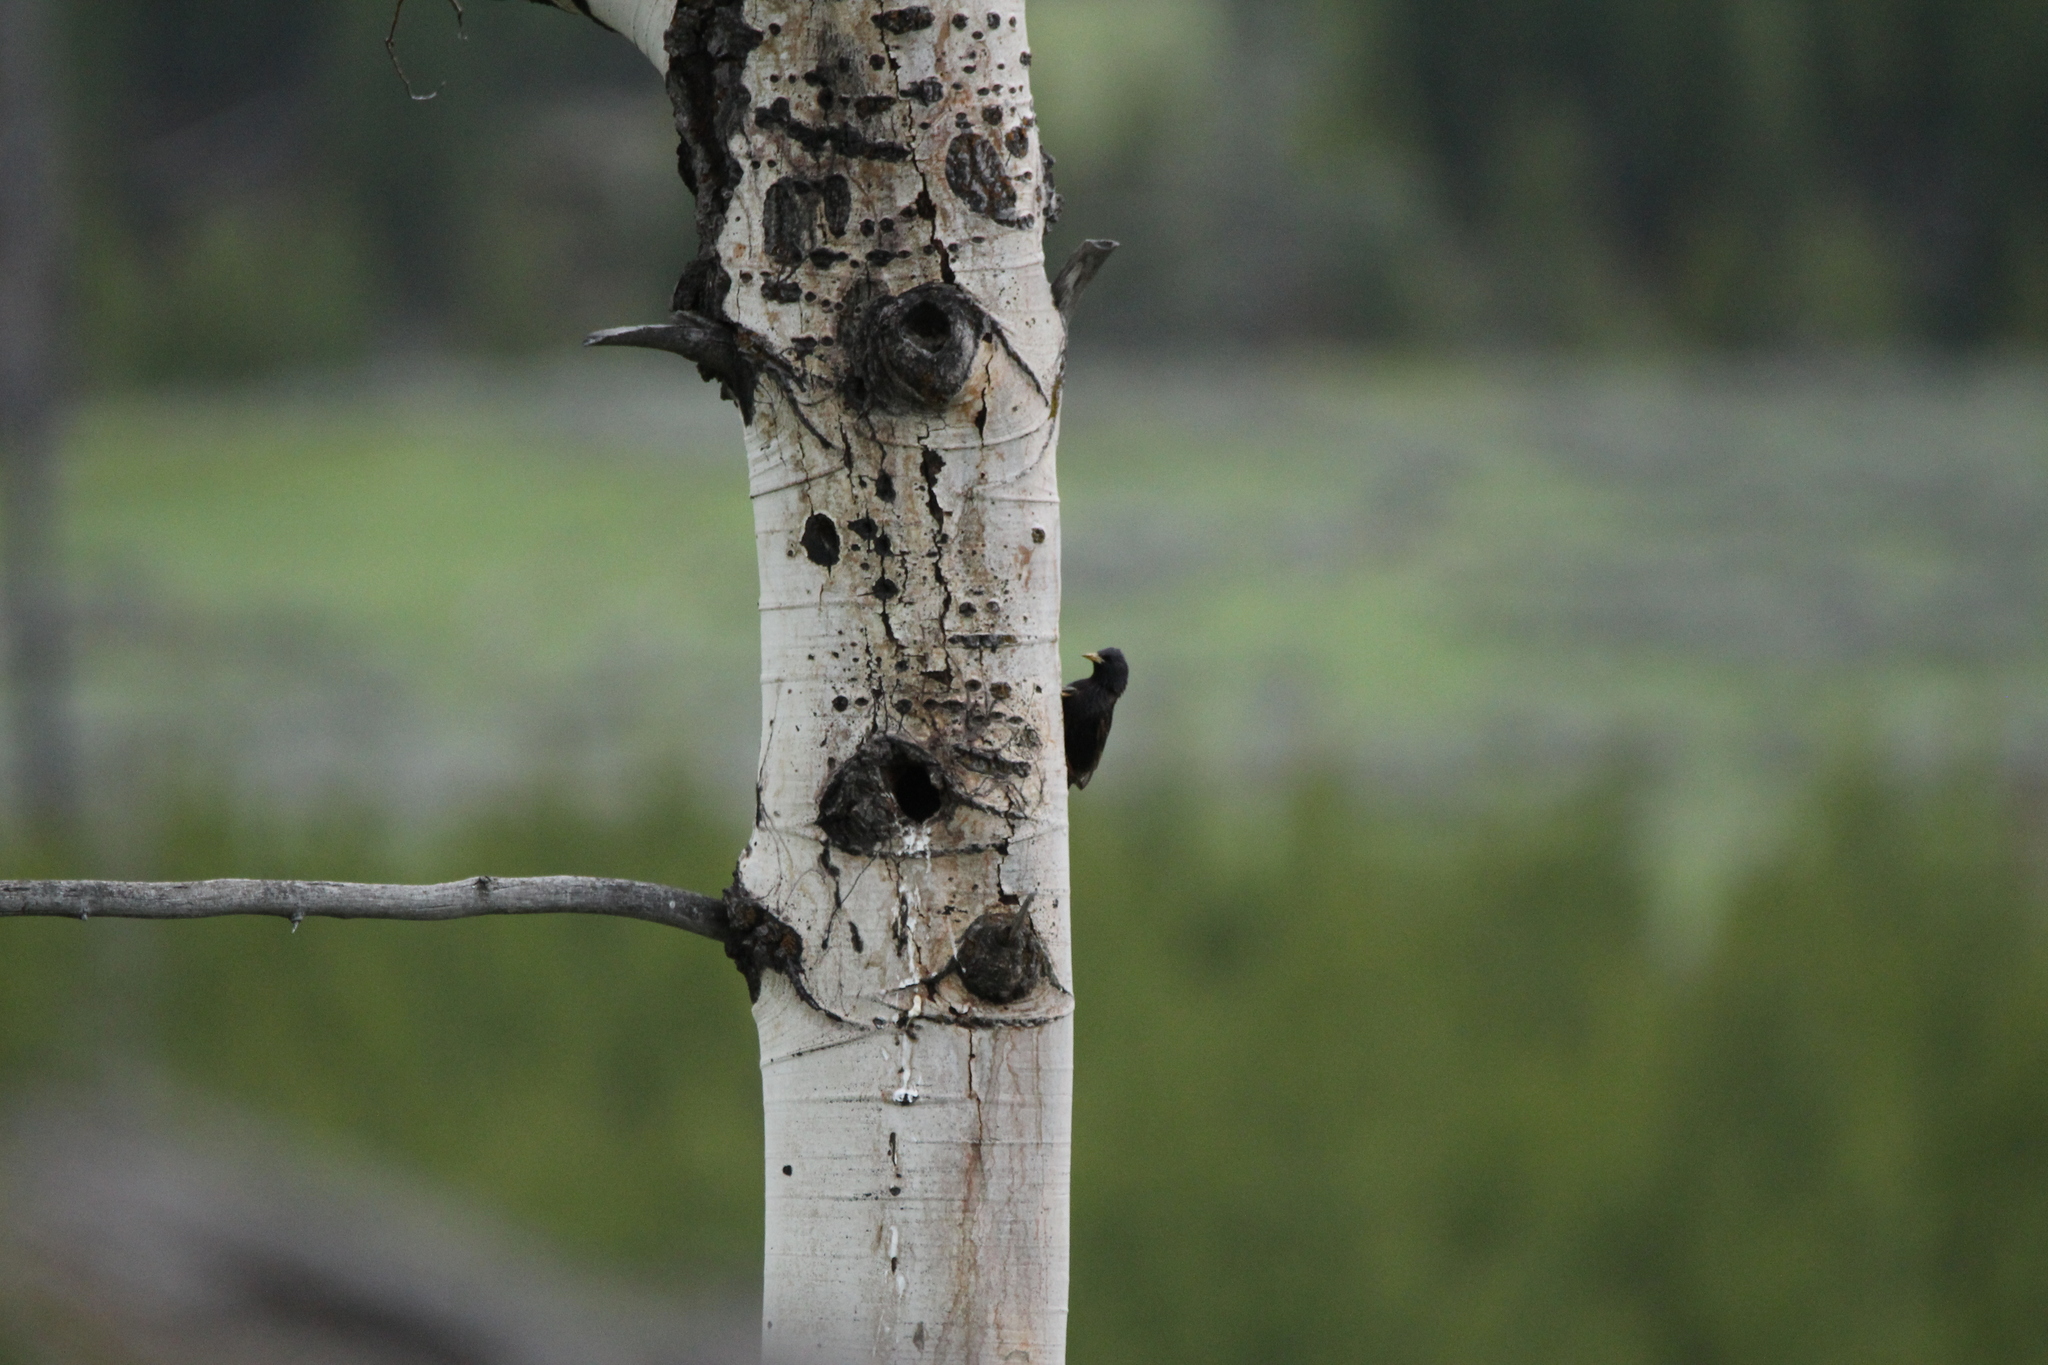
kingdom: Animalia
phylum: Chordata
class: Aves
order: Passeriformes
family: Sturnidae
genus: Sturnus
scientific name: Sturnus vulgaris
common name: Common starling
